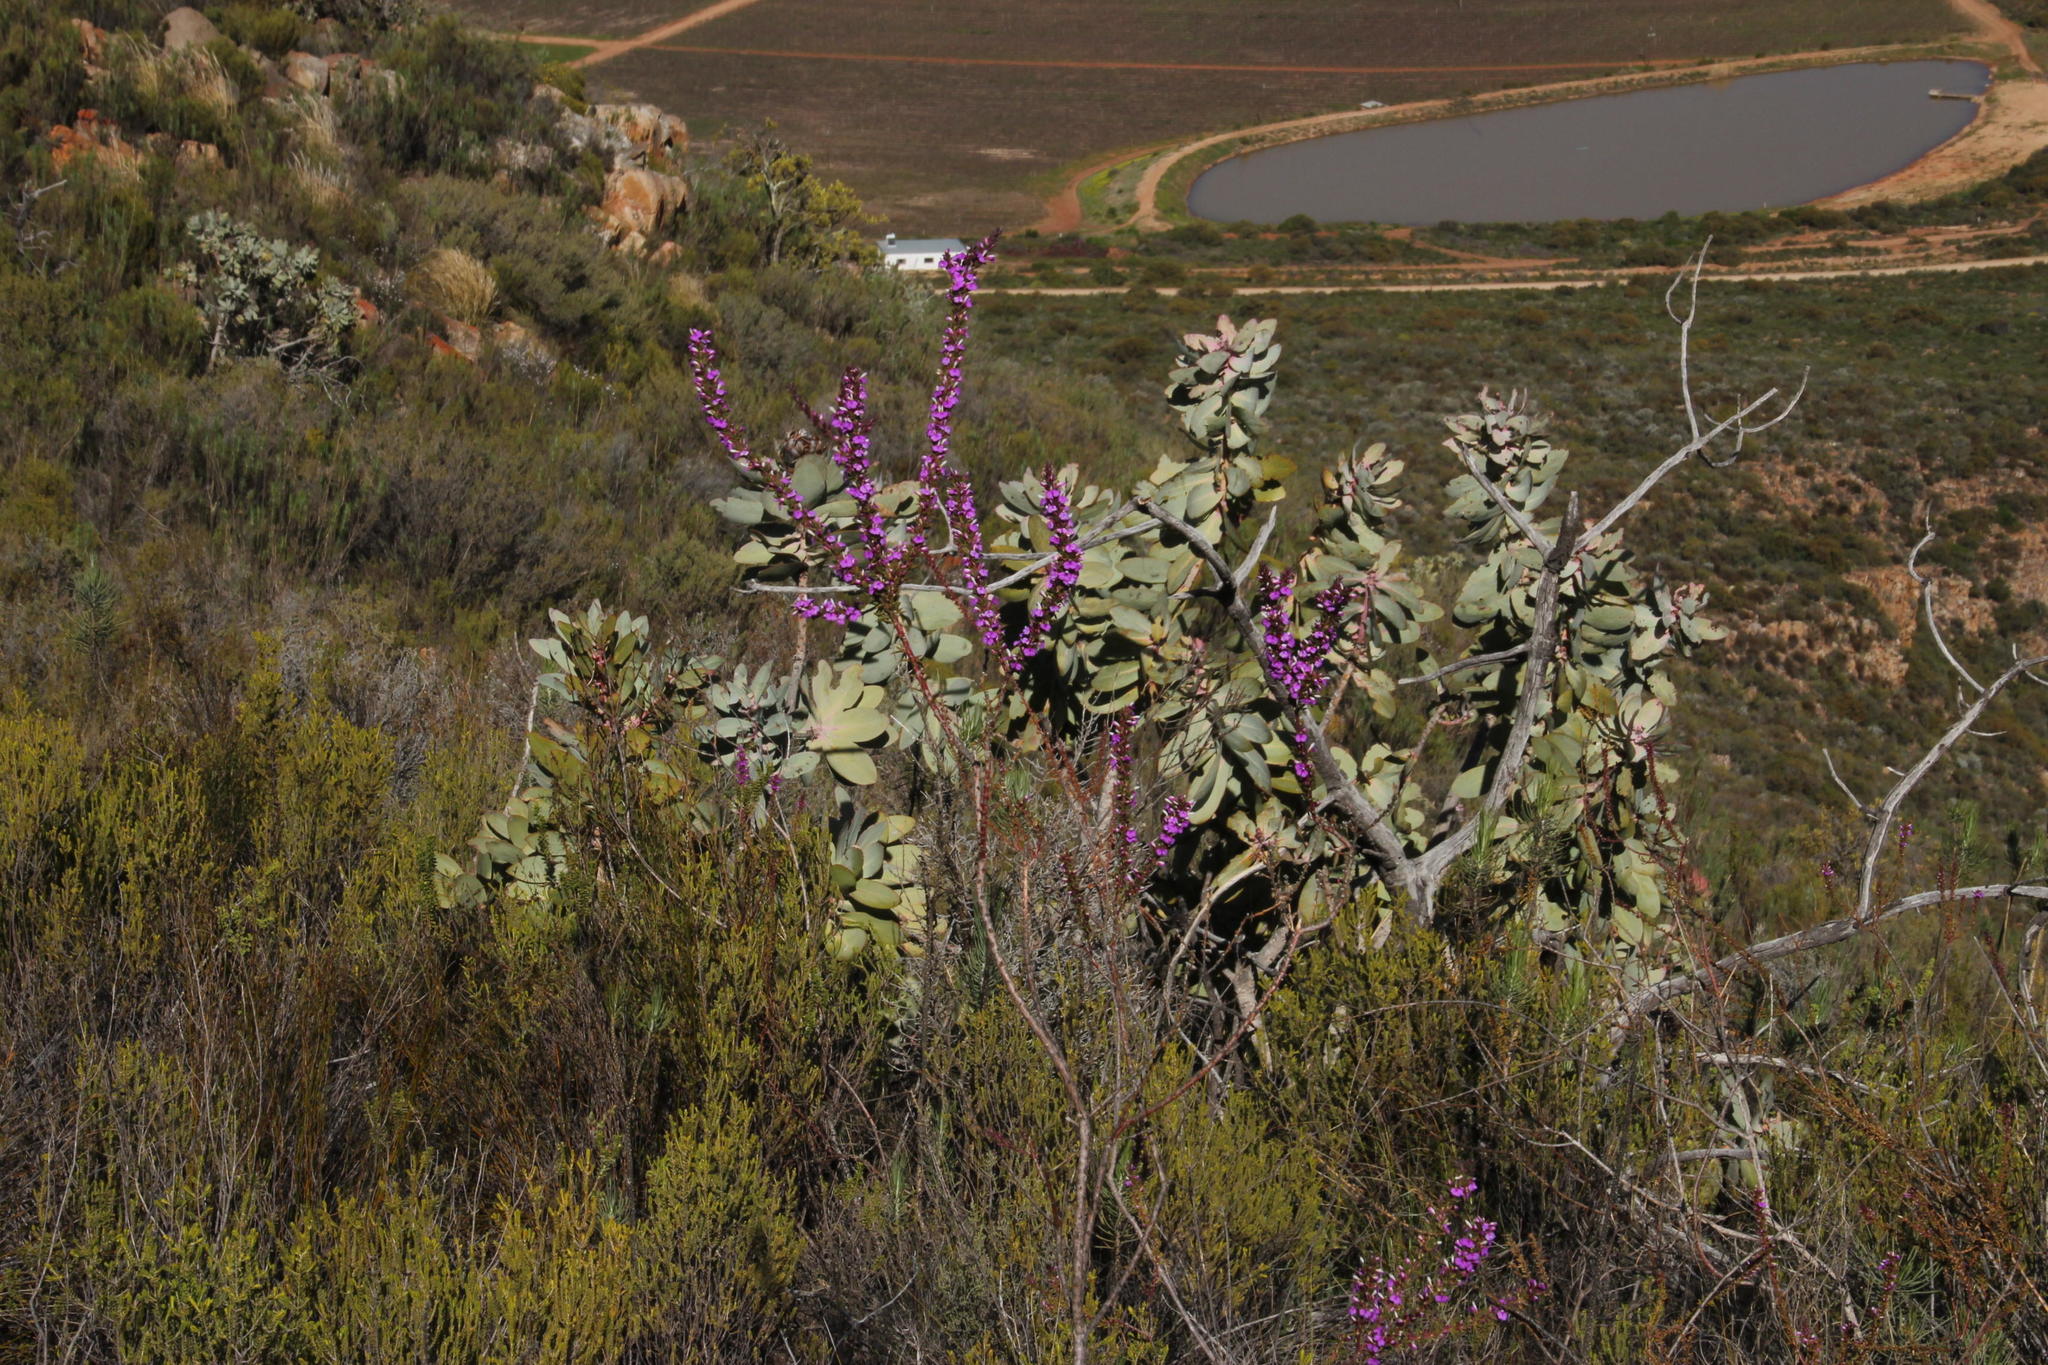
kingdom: Plantae
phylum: Tracheophyta
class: Magnoliopsida
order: Proteales
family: Proteaceae
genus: Protea
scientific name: Protea nitida
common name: Tree protea
